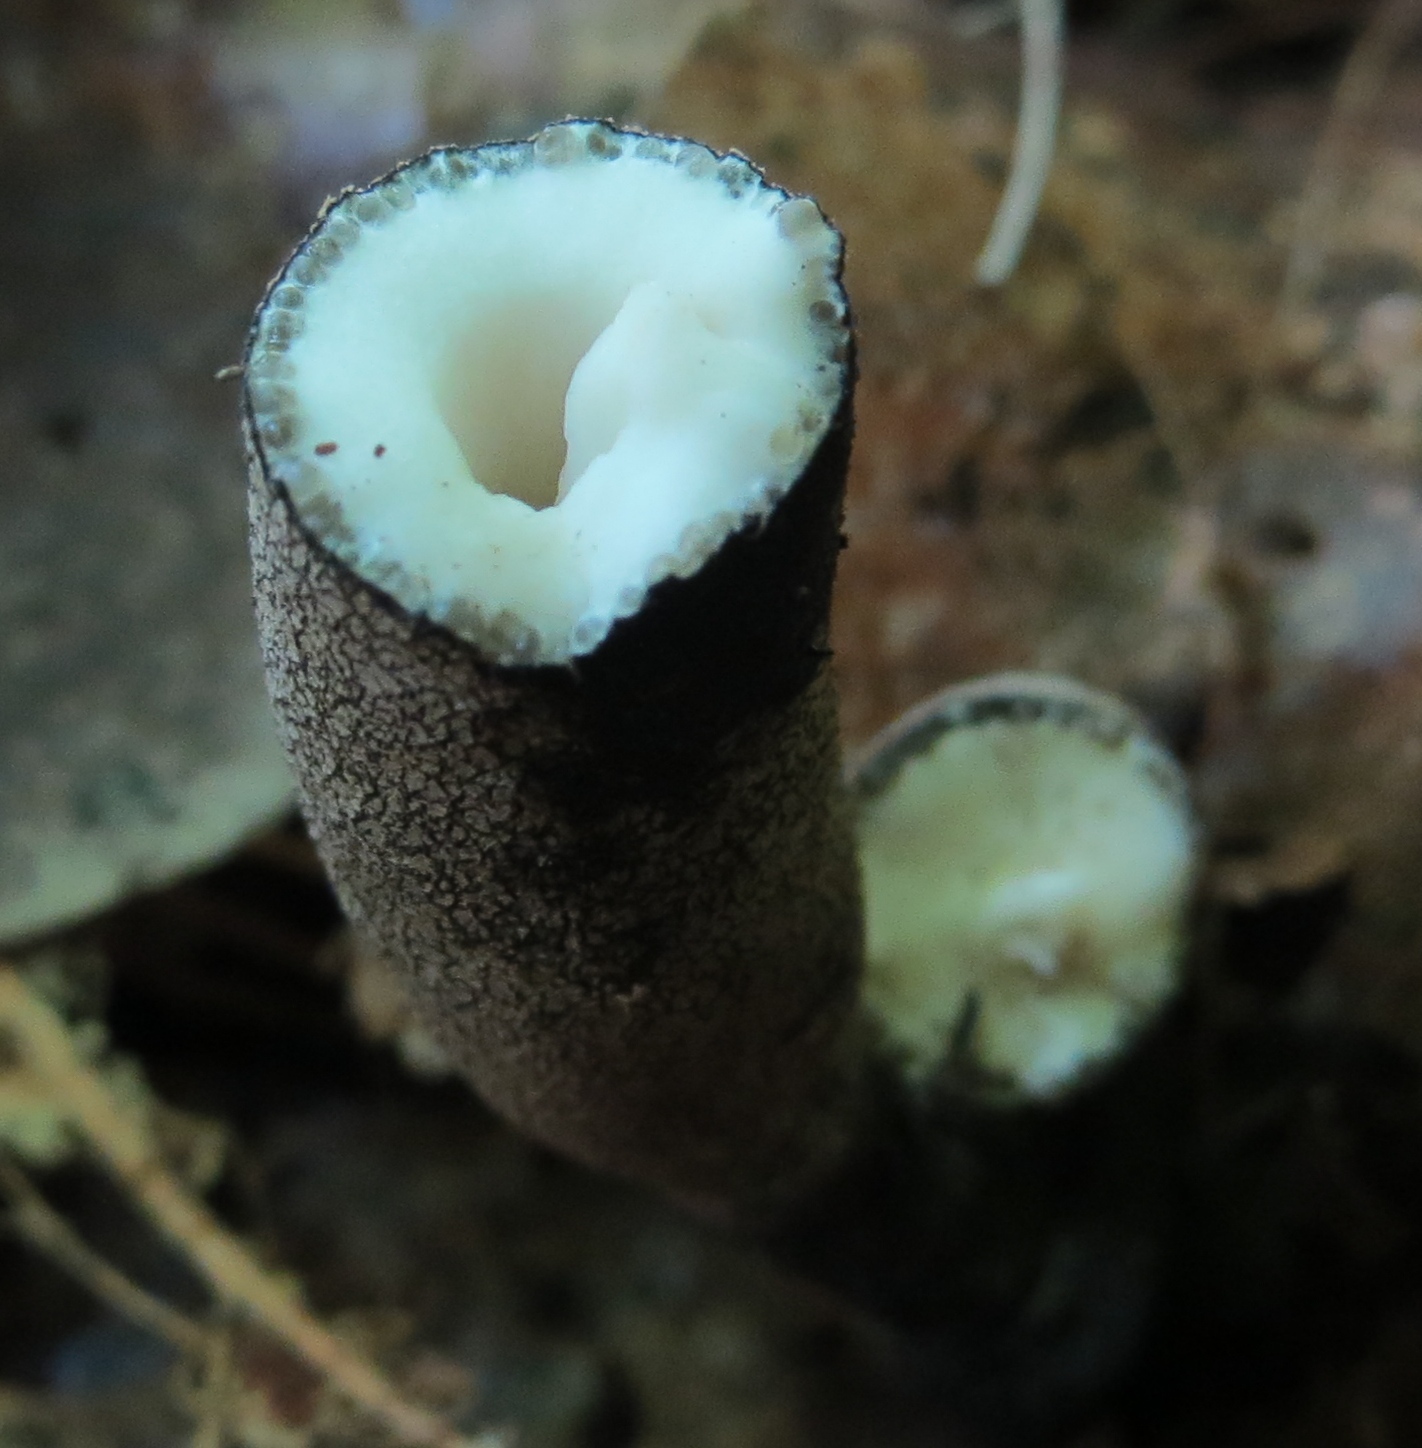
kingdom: Fungi
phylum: Ascomycota
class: Sordariomycetes
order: Xylariales
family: Xylariaceae
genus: Xylaria
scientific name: Xylaria longipes
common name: Dead moll's fingers
